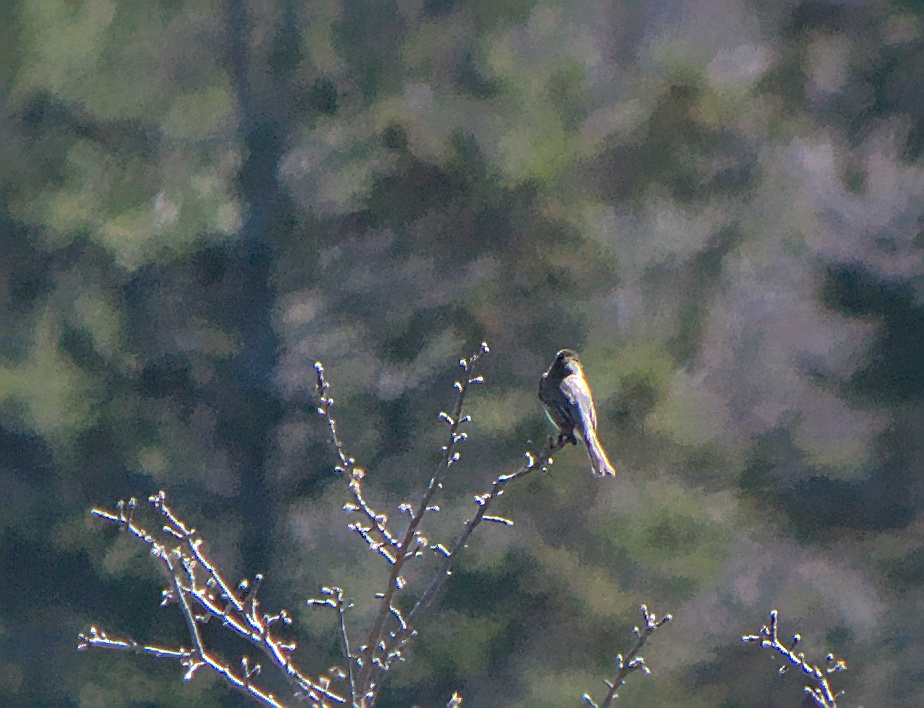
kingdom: Animalia
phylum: Chordata
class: Aves
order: Passeriformes
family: Tyrannidae
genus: Sayornis
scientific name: Sayornis phoebe
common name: Eastern phoebe
